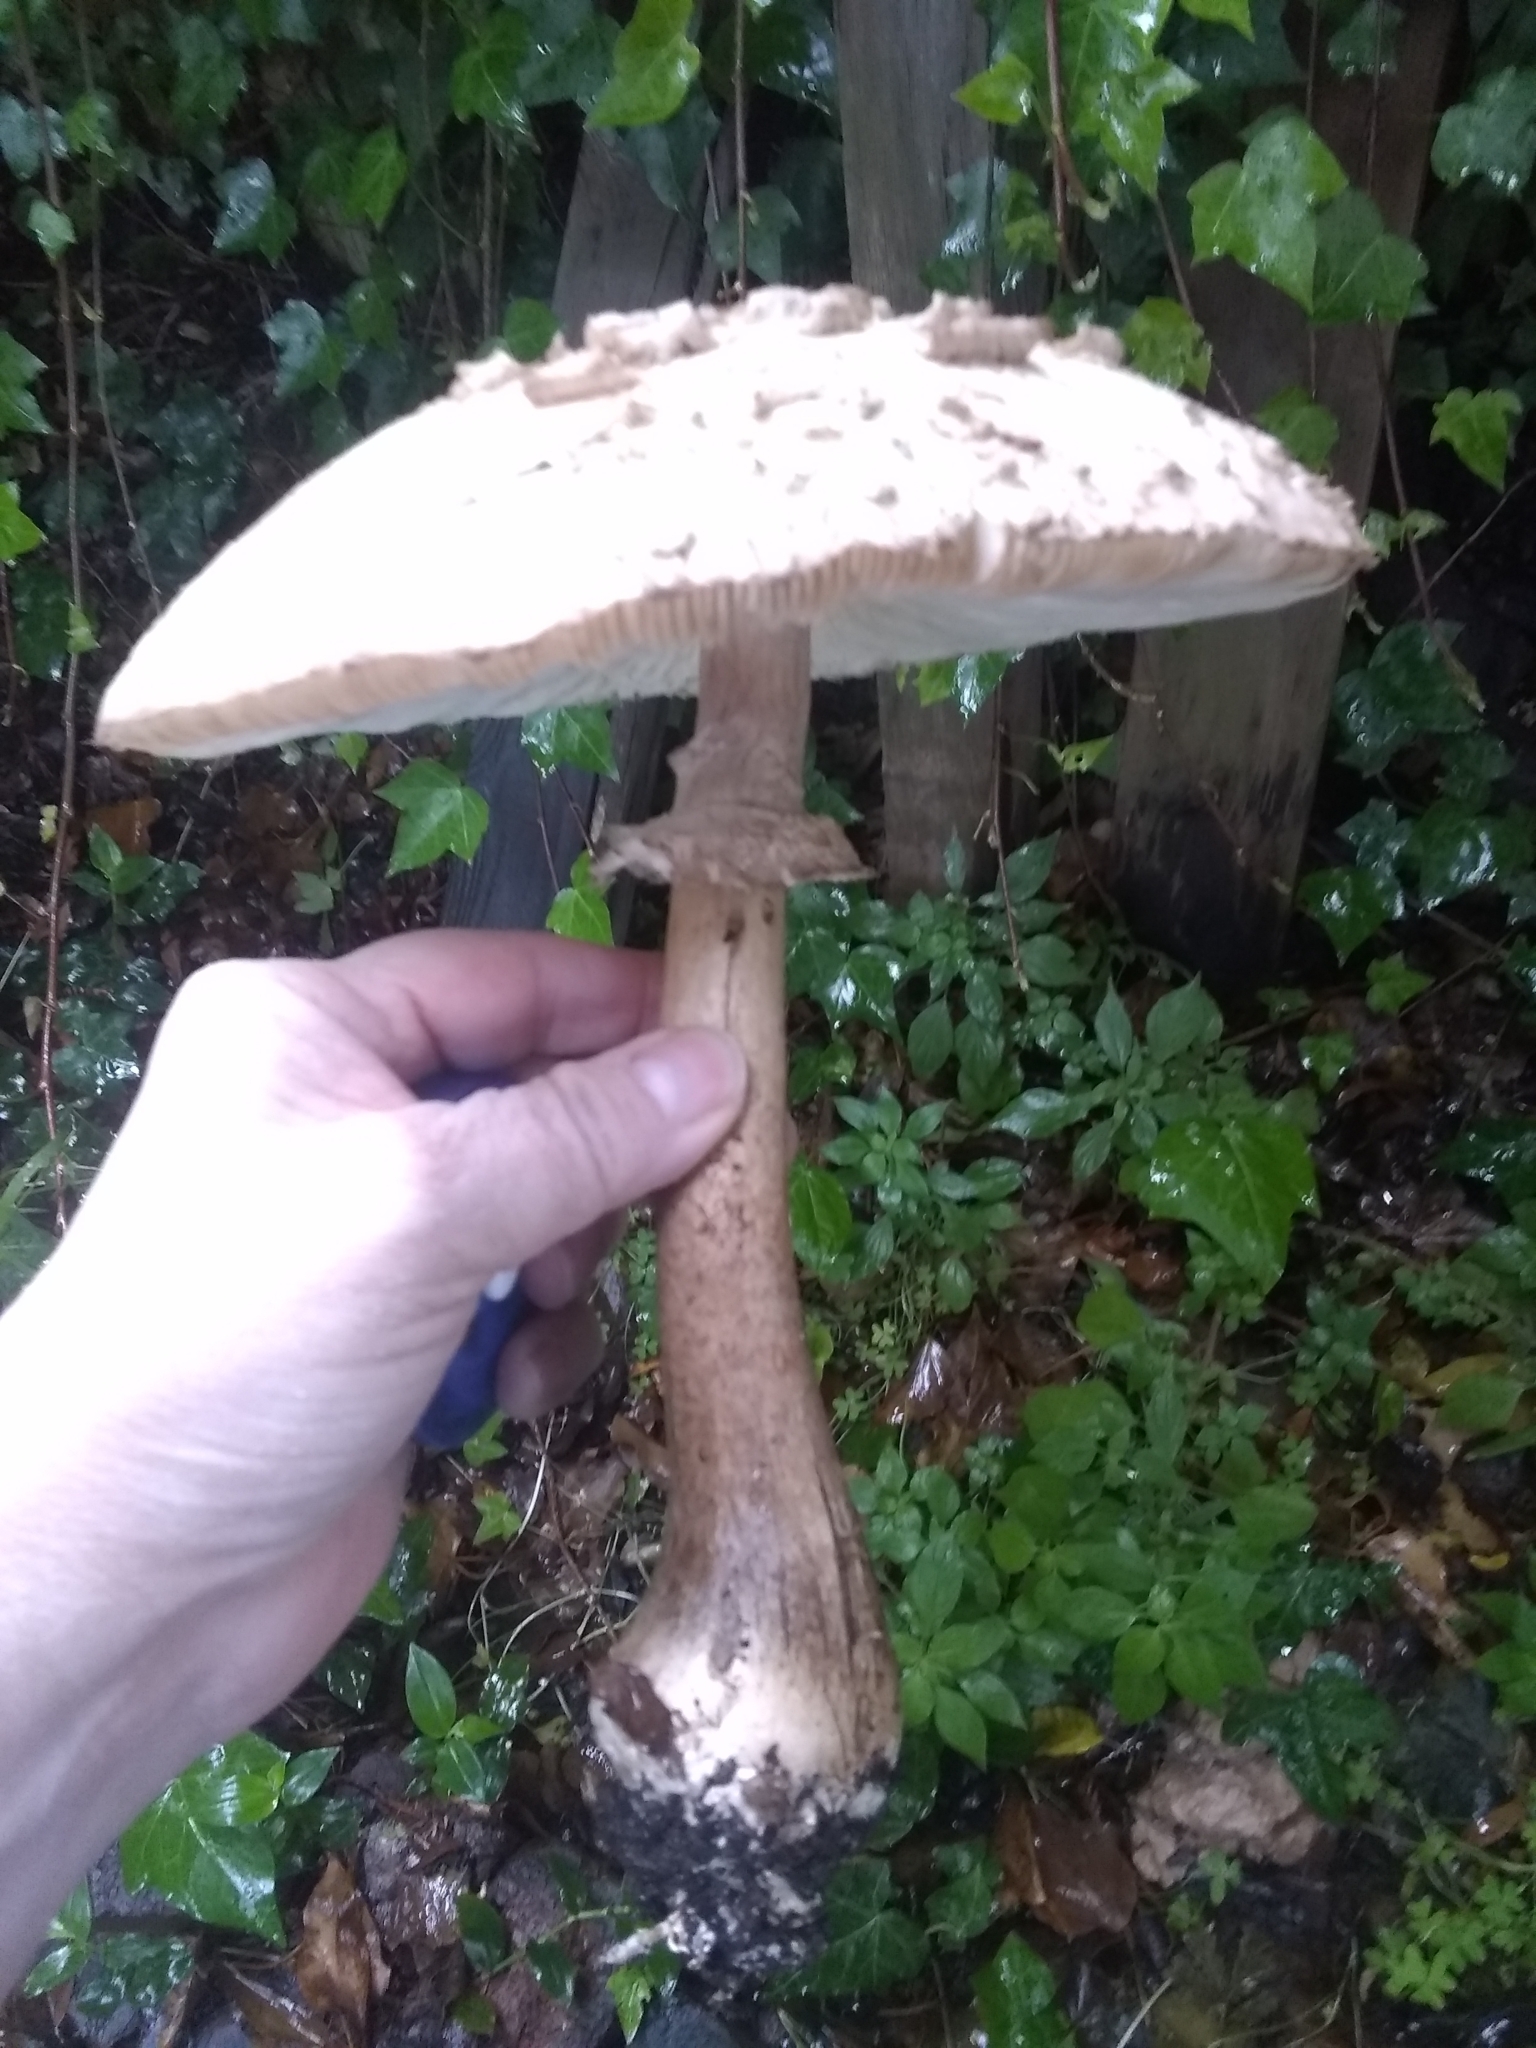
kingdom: Fungi
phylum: Basidiomycota
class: Agaricomycetes
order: Agaricales
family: Agaricaceae
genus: Chlorophyllum
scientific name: Chlorophyllum rhacodes
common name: Shaggy parasol
